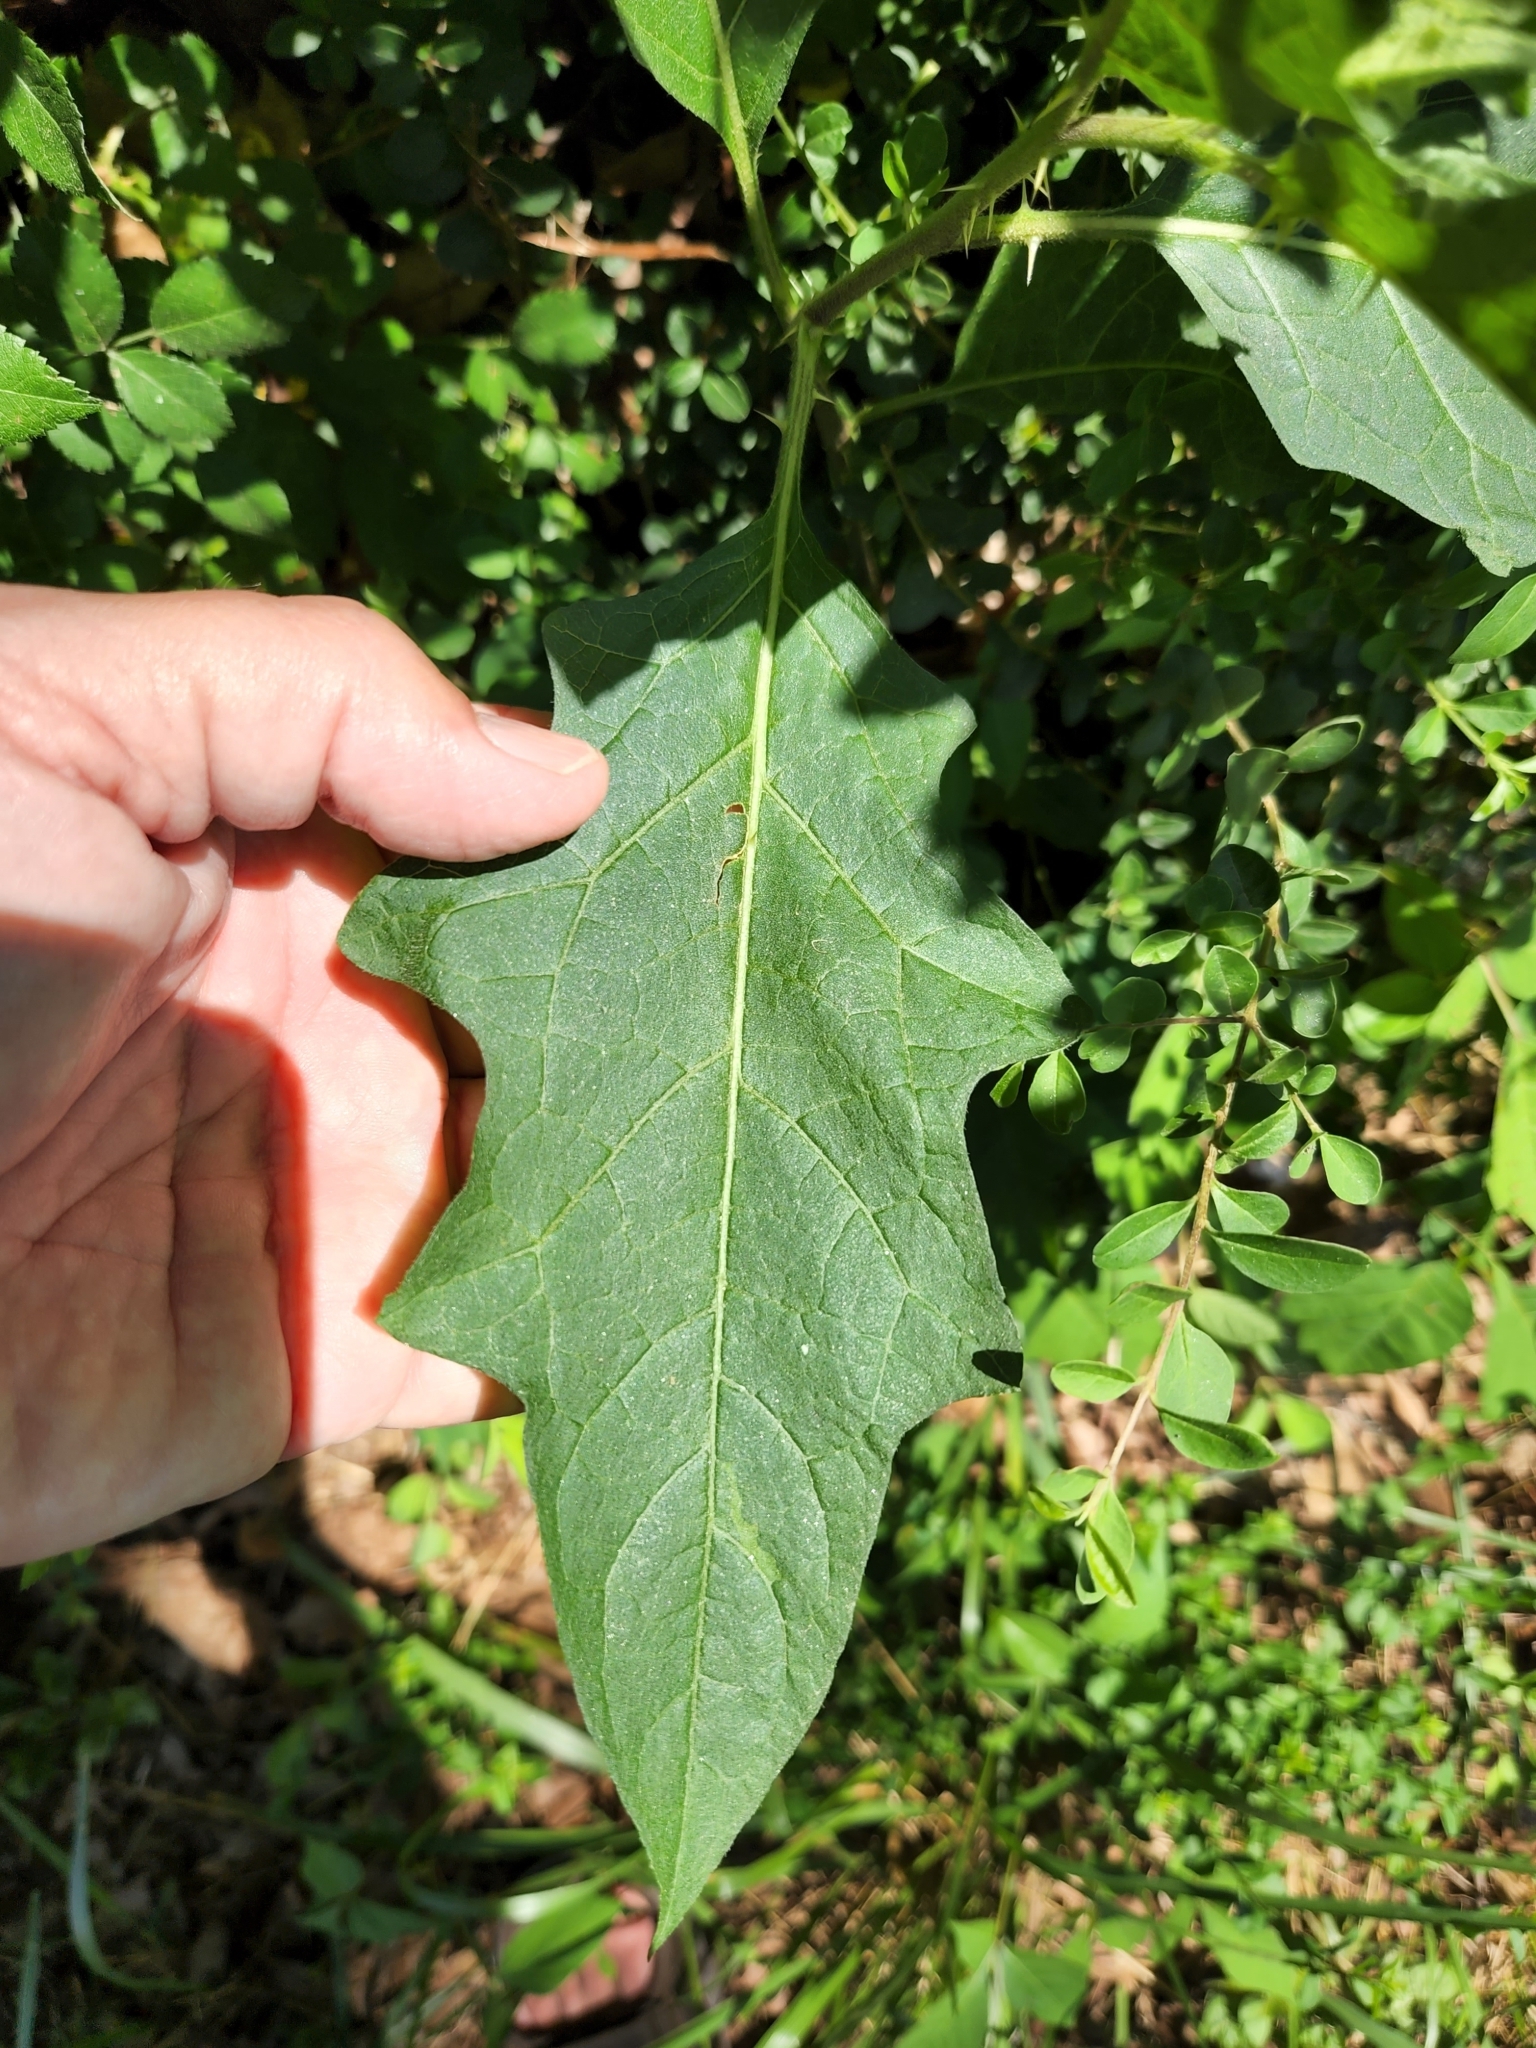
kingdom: Plantae
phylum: Tracheophyta
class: Magnoliopsida
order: Solanales
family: Solanaceae
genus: Solanum
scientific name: Solanum carolinense
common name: Horse-nettle
